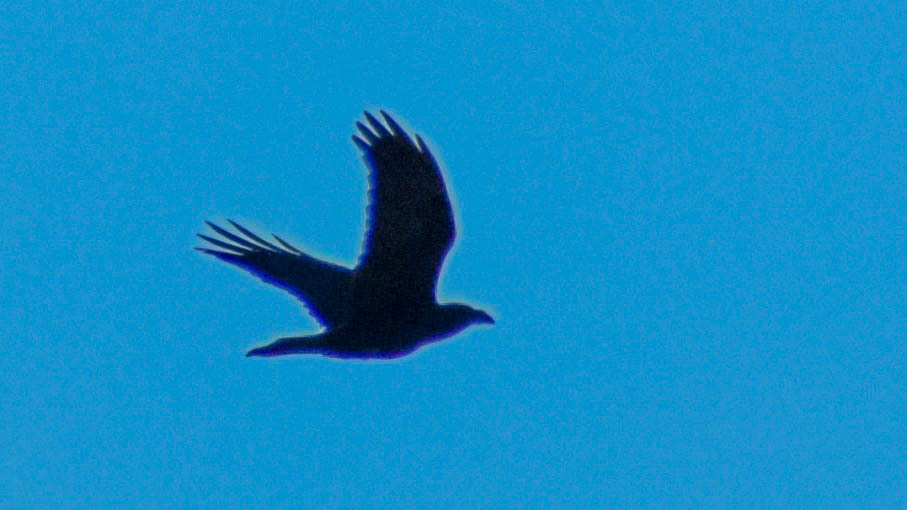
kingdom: Animalia
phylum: Chordata
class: Aves
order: Passeriformes
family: Corvidae
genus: Corvus
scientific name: Corvus corax
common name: Common raven
